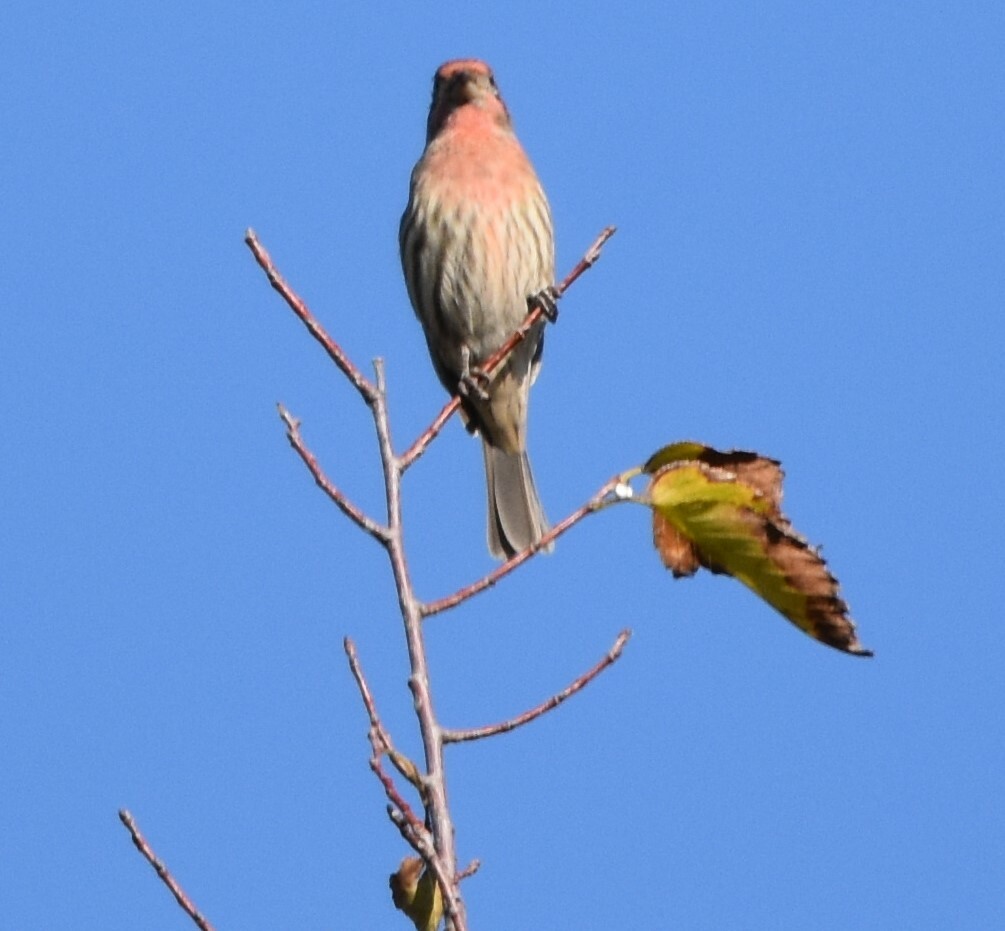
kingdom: Animalia
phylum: Chordata
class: Aves
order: Passeriformes
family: Fringillidae
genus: Haemorhous
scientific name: Haemorhous mexicanus
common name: House finch
